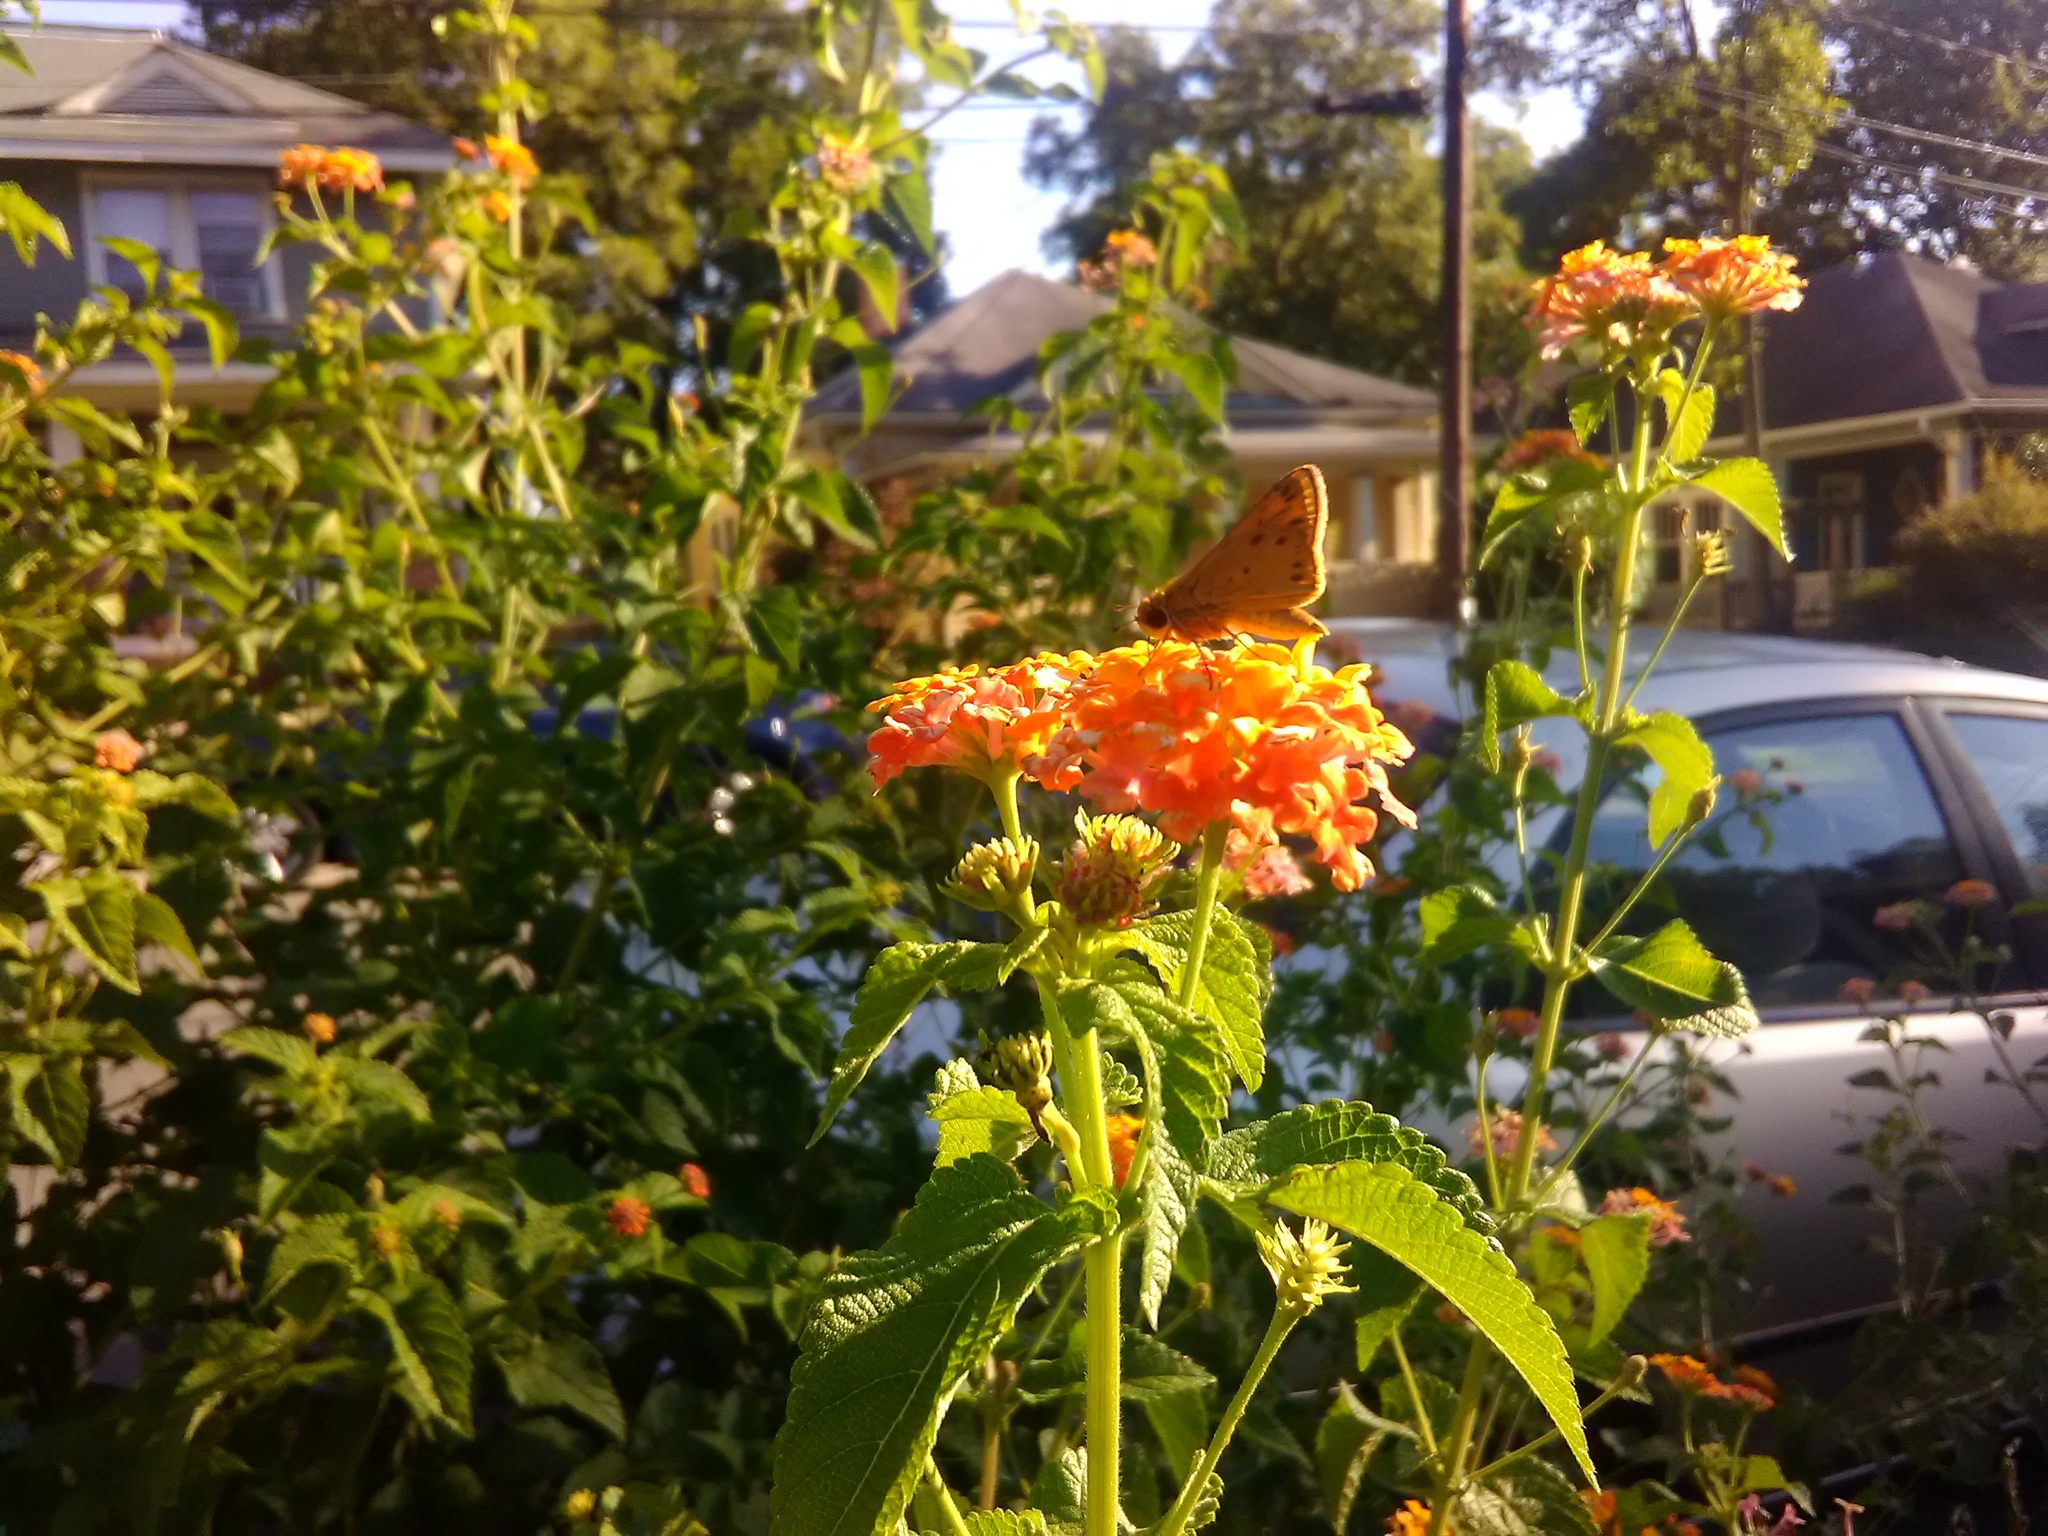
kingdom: Animalia
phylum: Arthropoda
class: Insecta
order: Lepidoptera
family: Hesperiidae
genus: Hylephila
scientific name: Hylephila phyleus
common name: Fiery skipper
